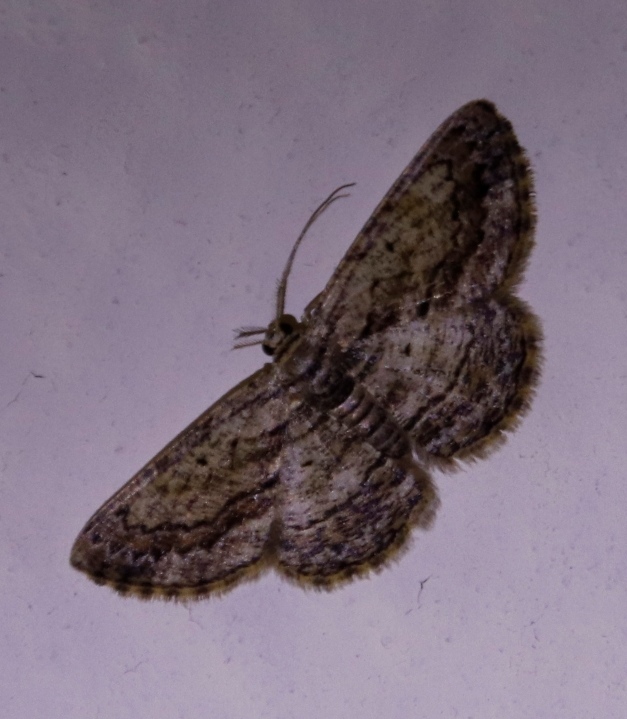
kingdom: Animalia
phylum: Arthropoda
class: Insecta
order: Lepidoptera
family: Geometridae
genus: Zamarada
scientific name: Zamarada ascaphes
